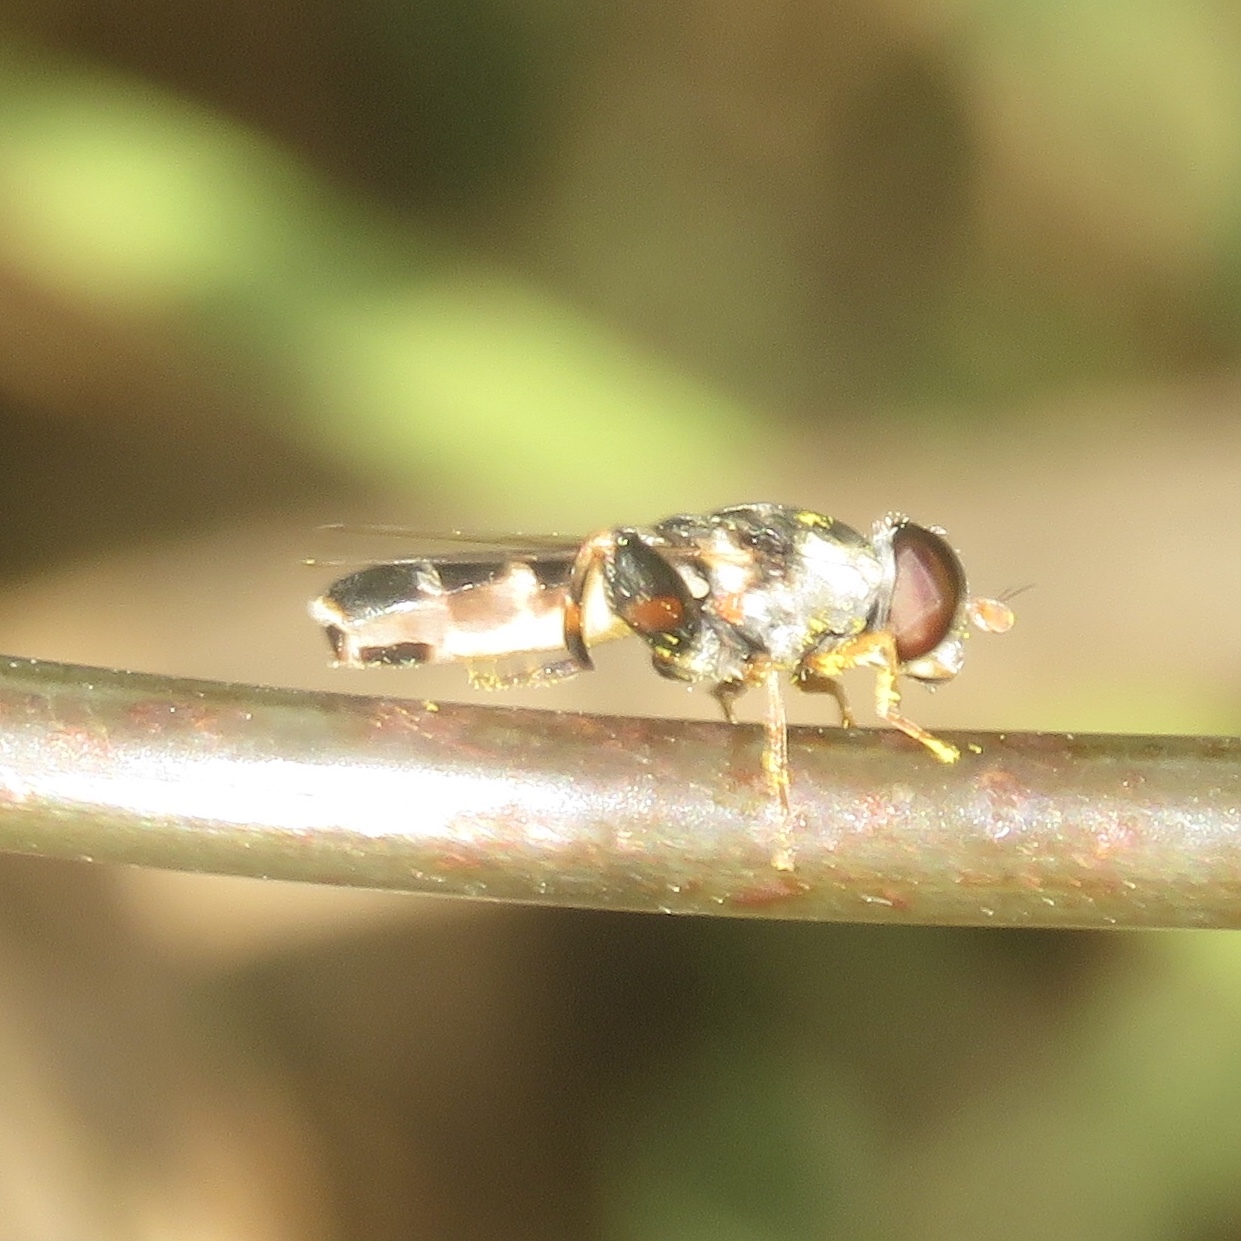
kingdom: Animalia
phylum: Arthropoda
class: Insecta
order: Diptera
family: Syrphidae
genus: Syritta
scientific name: Syritta pipiens
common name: Hover fly
